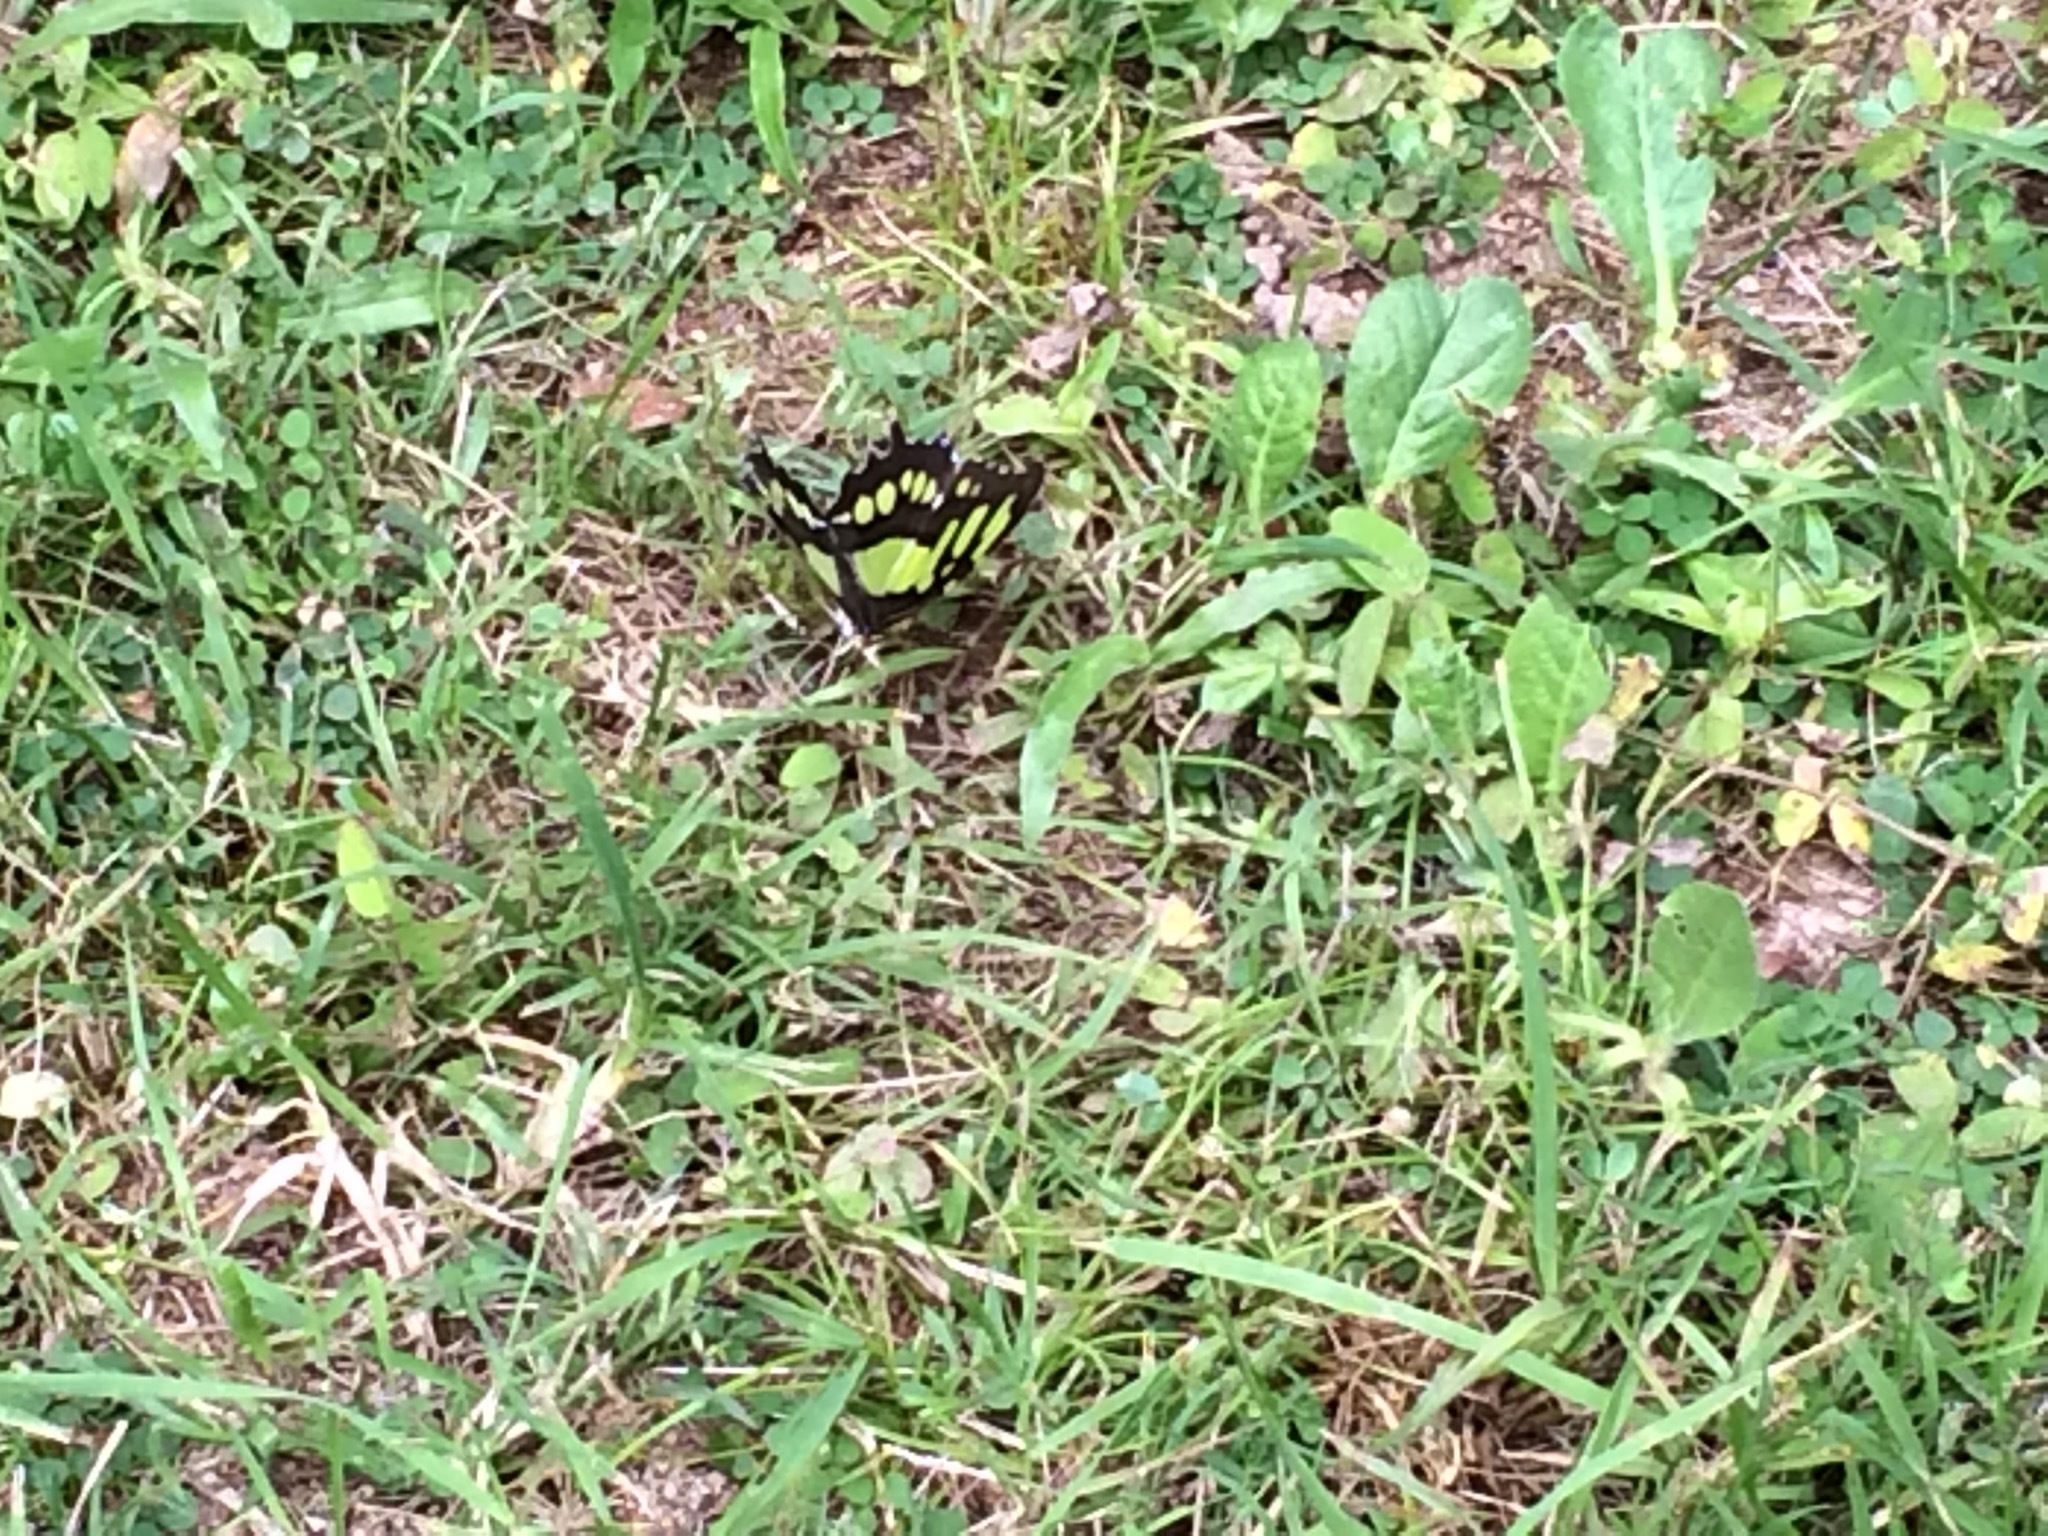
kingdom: Animalia
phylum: Arthropoda
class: Insecta
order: Lepidoptera
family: Nymphalidae
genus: Siproeta
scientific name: Siproeta stelenes
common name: Malachite
